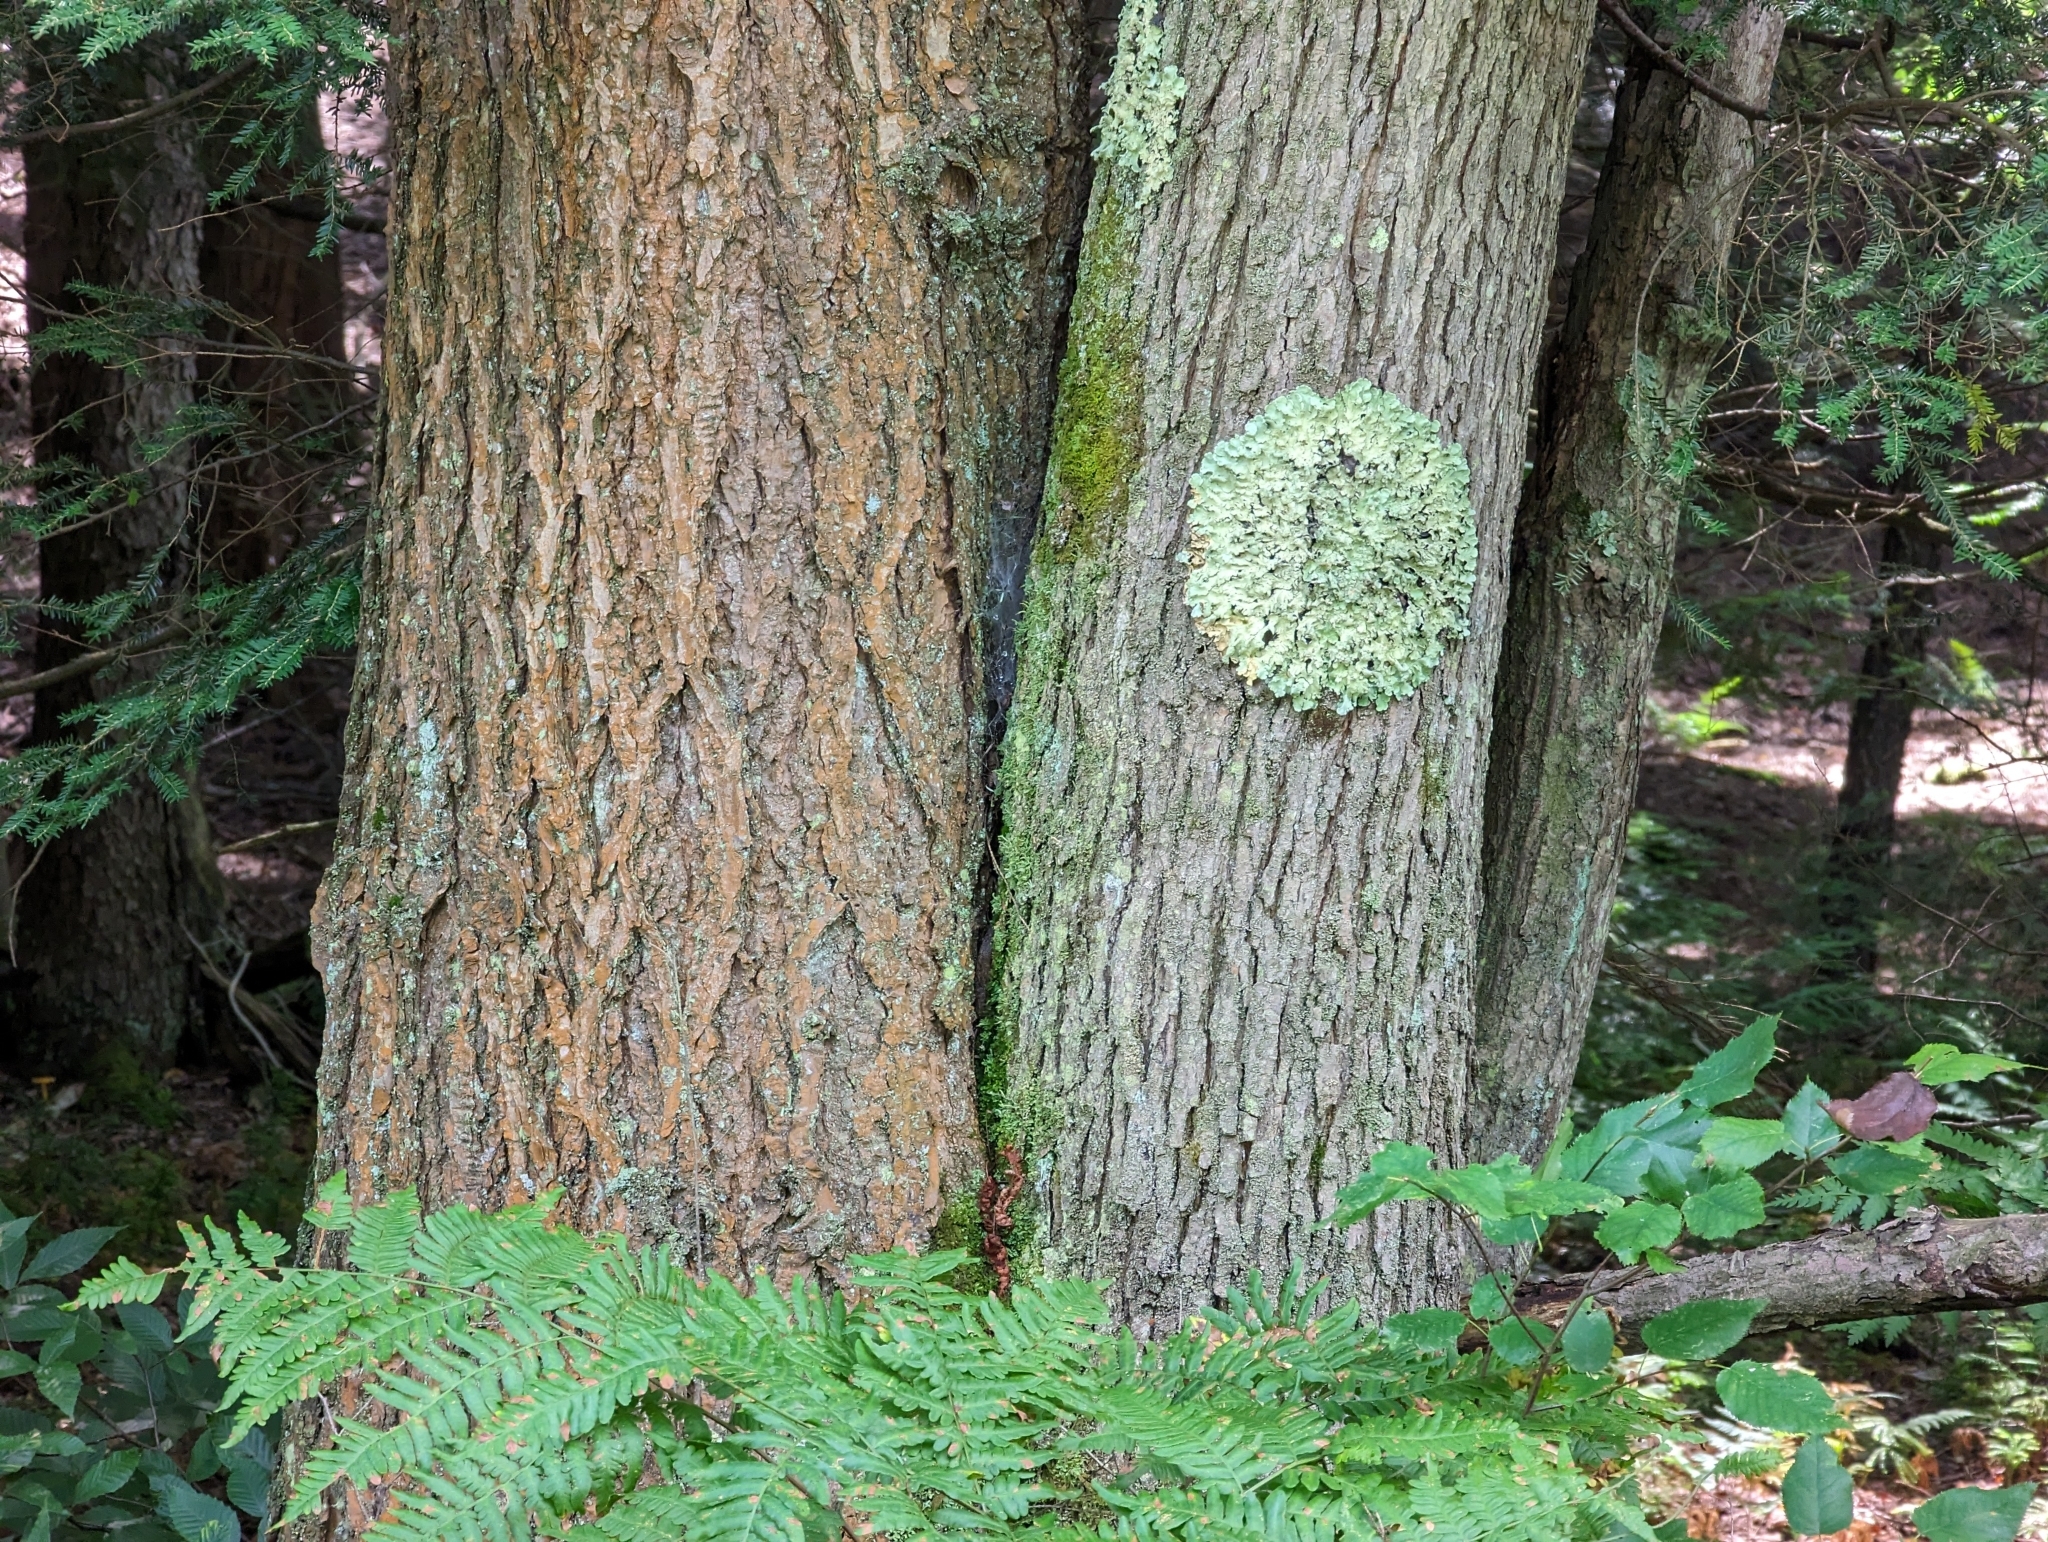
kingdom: Fungi
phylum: Ascomycota
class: Lecanoromycetes
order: Lecanorales
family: Parmeliaceae
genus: Flavoparmelia
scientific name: Flavoparmelia caperata
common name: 40-mile per hour lichen
